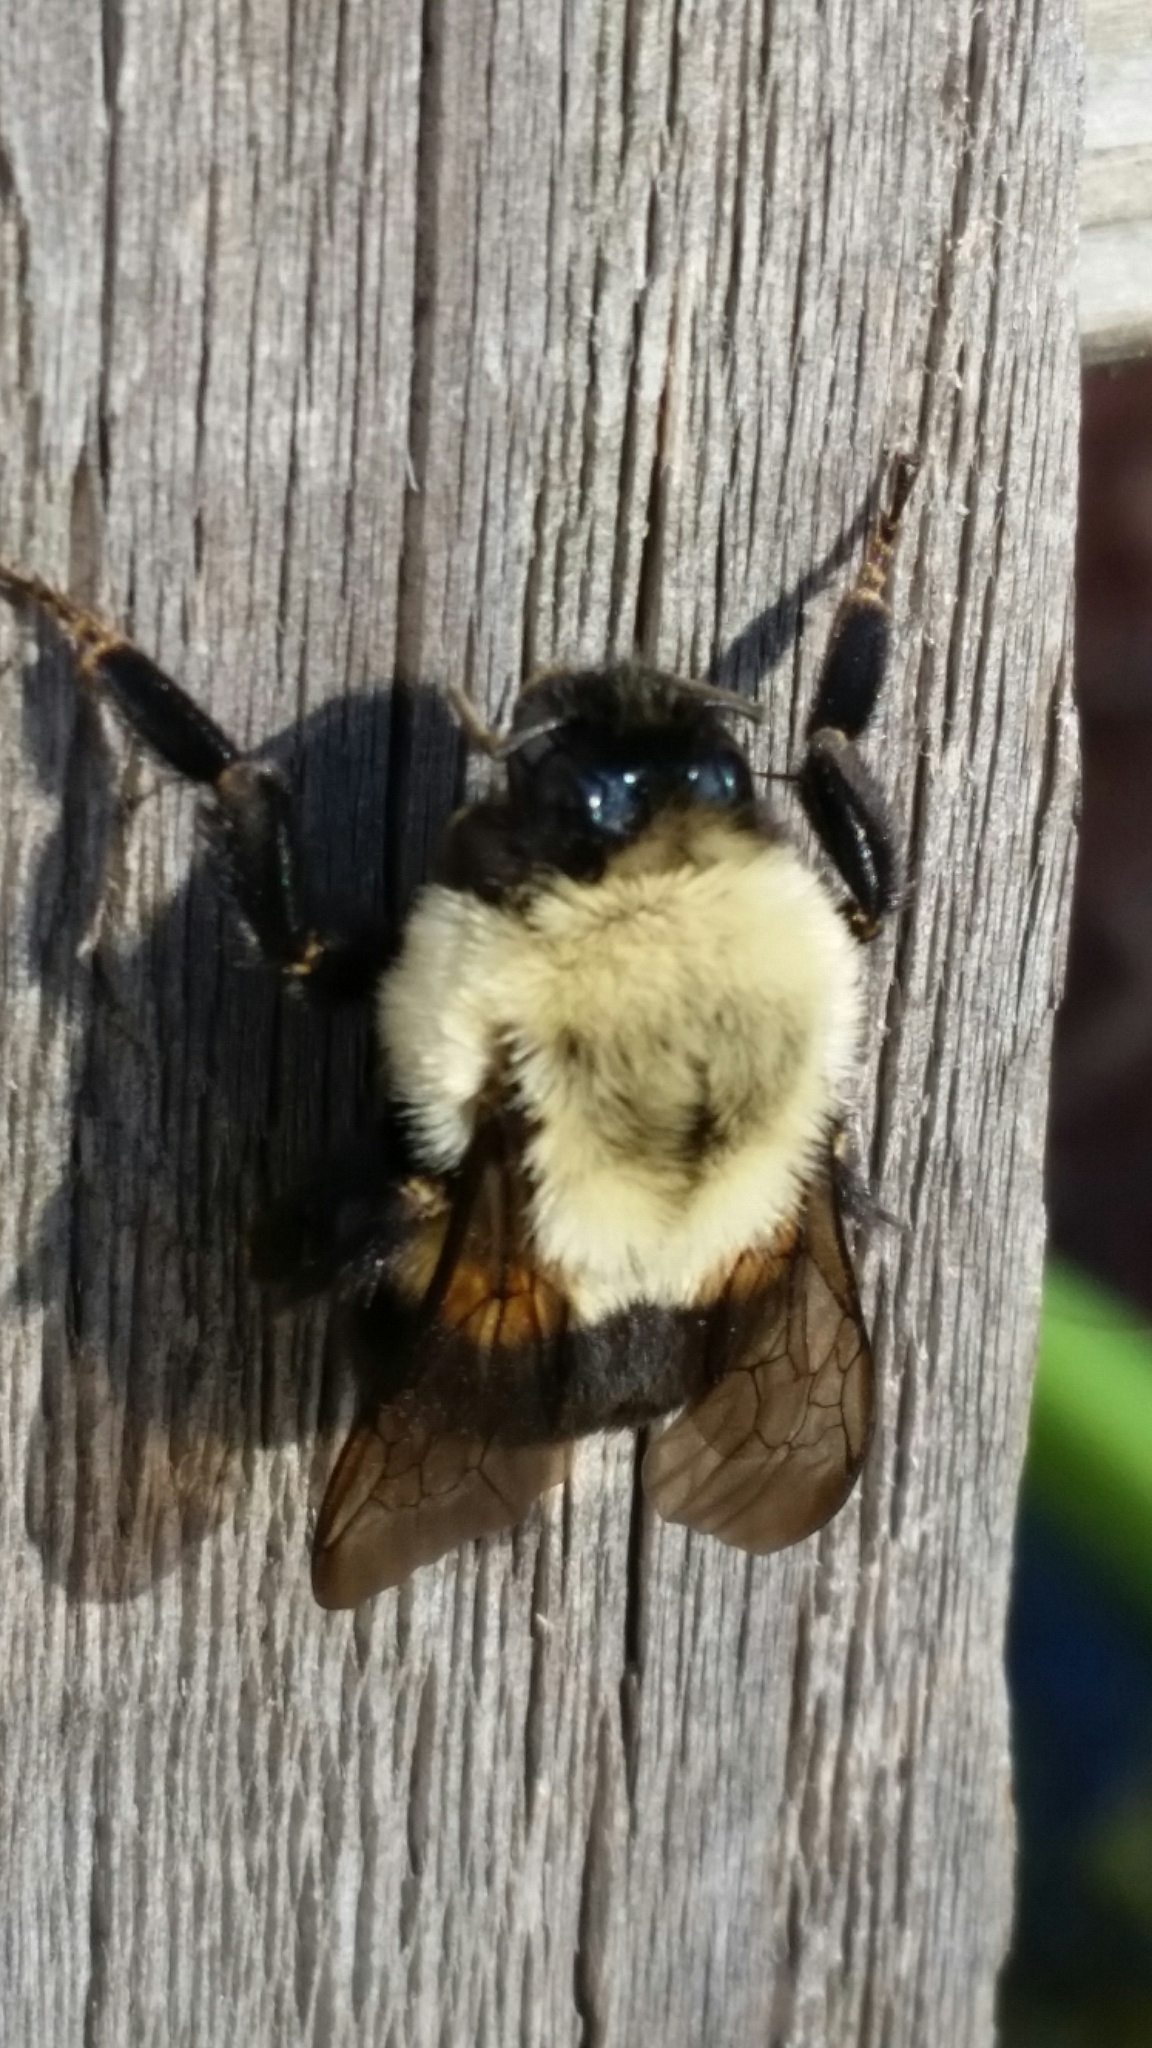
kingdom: Animalia
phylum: Arthropoda
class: Insecta
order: Hymenoptera
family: Apidae
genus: Bombus
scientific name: Bombus impatiens
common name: Common eastern bumble bee
